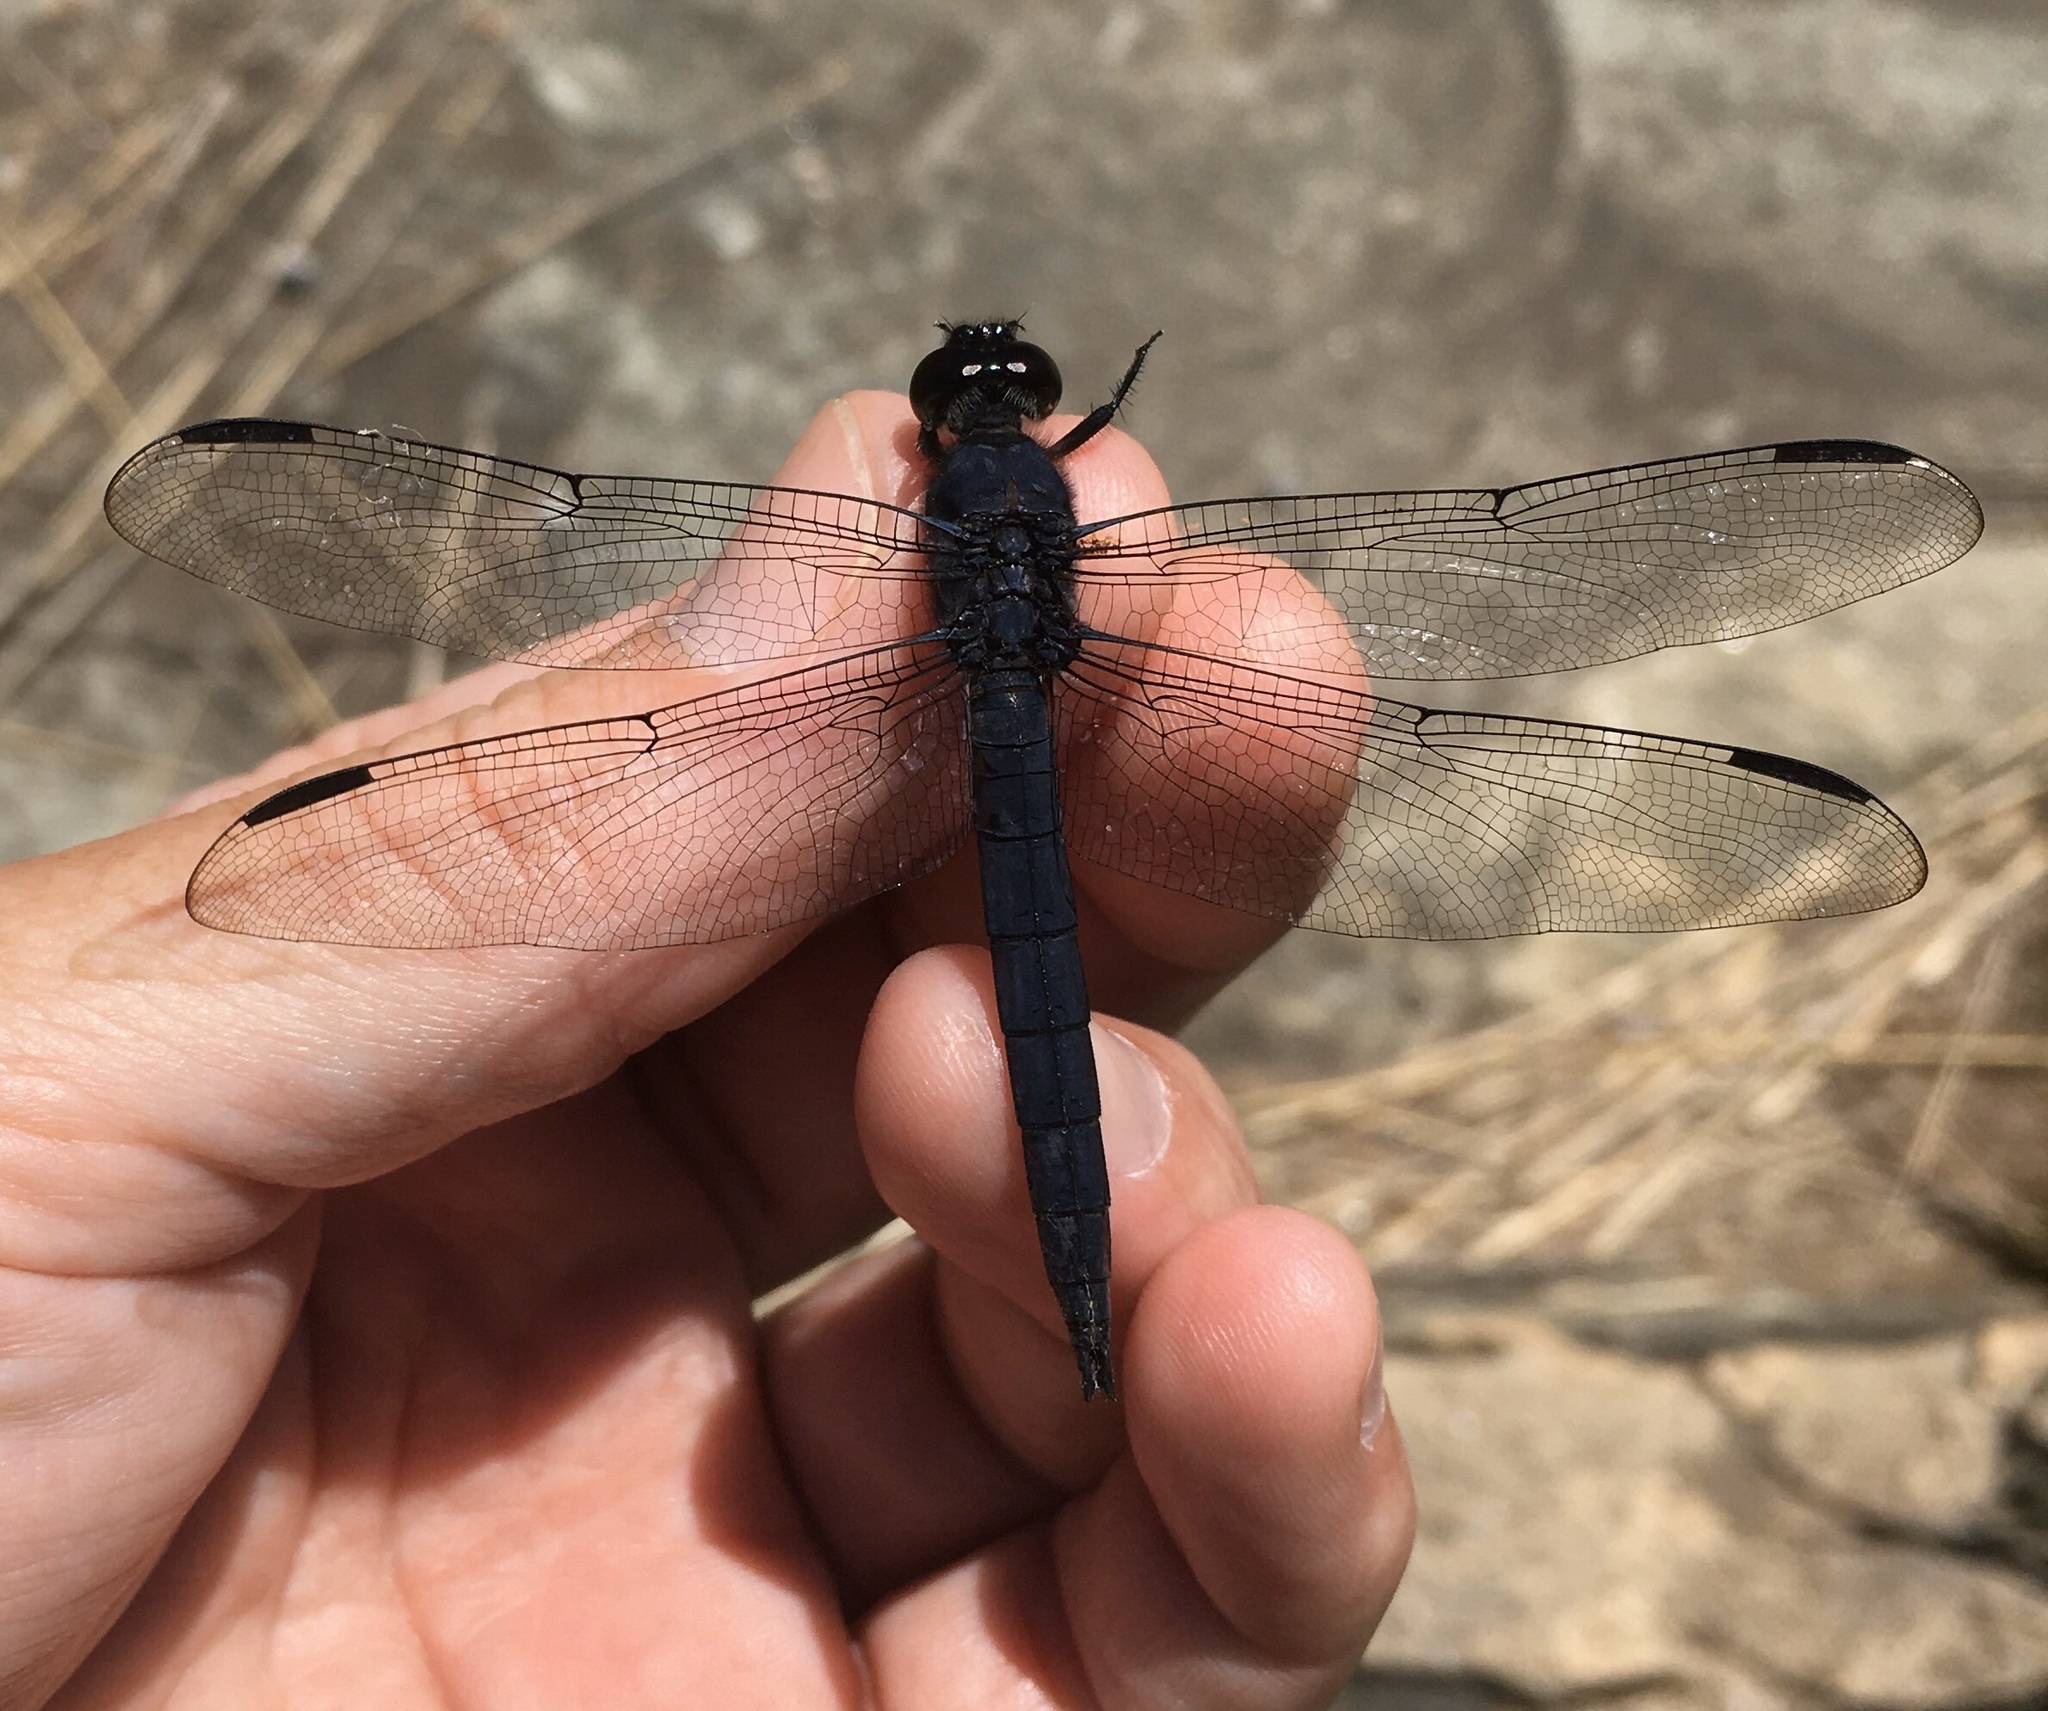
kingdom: Animalia
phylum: Arthropoda
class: Insecta
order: Odonata
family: Libellulidae
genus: Libellula
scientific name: Libellula incesta
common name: Slaty skimmer
